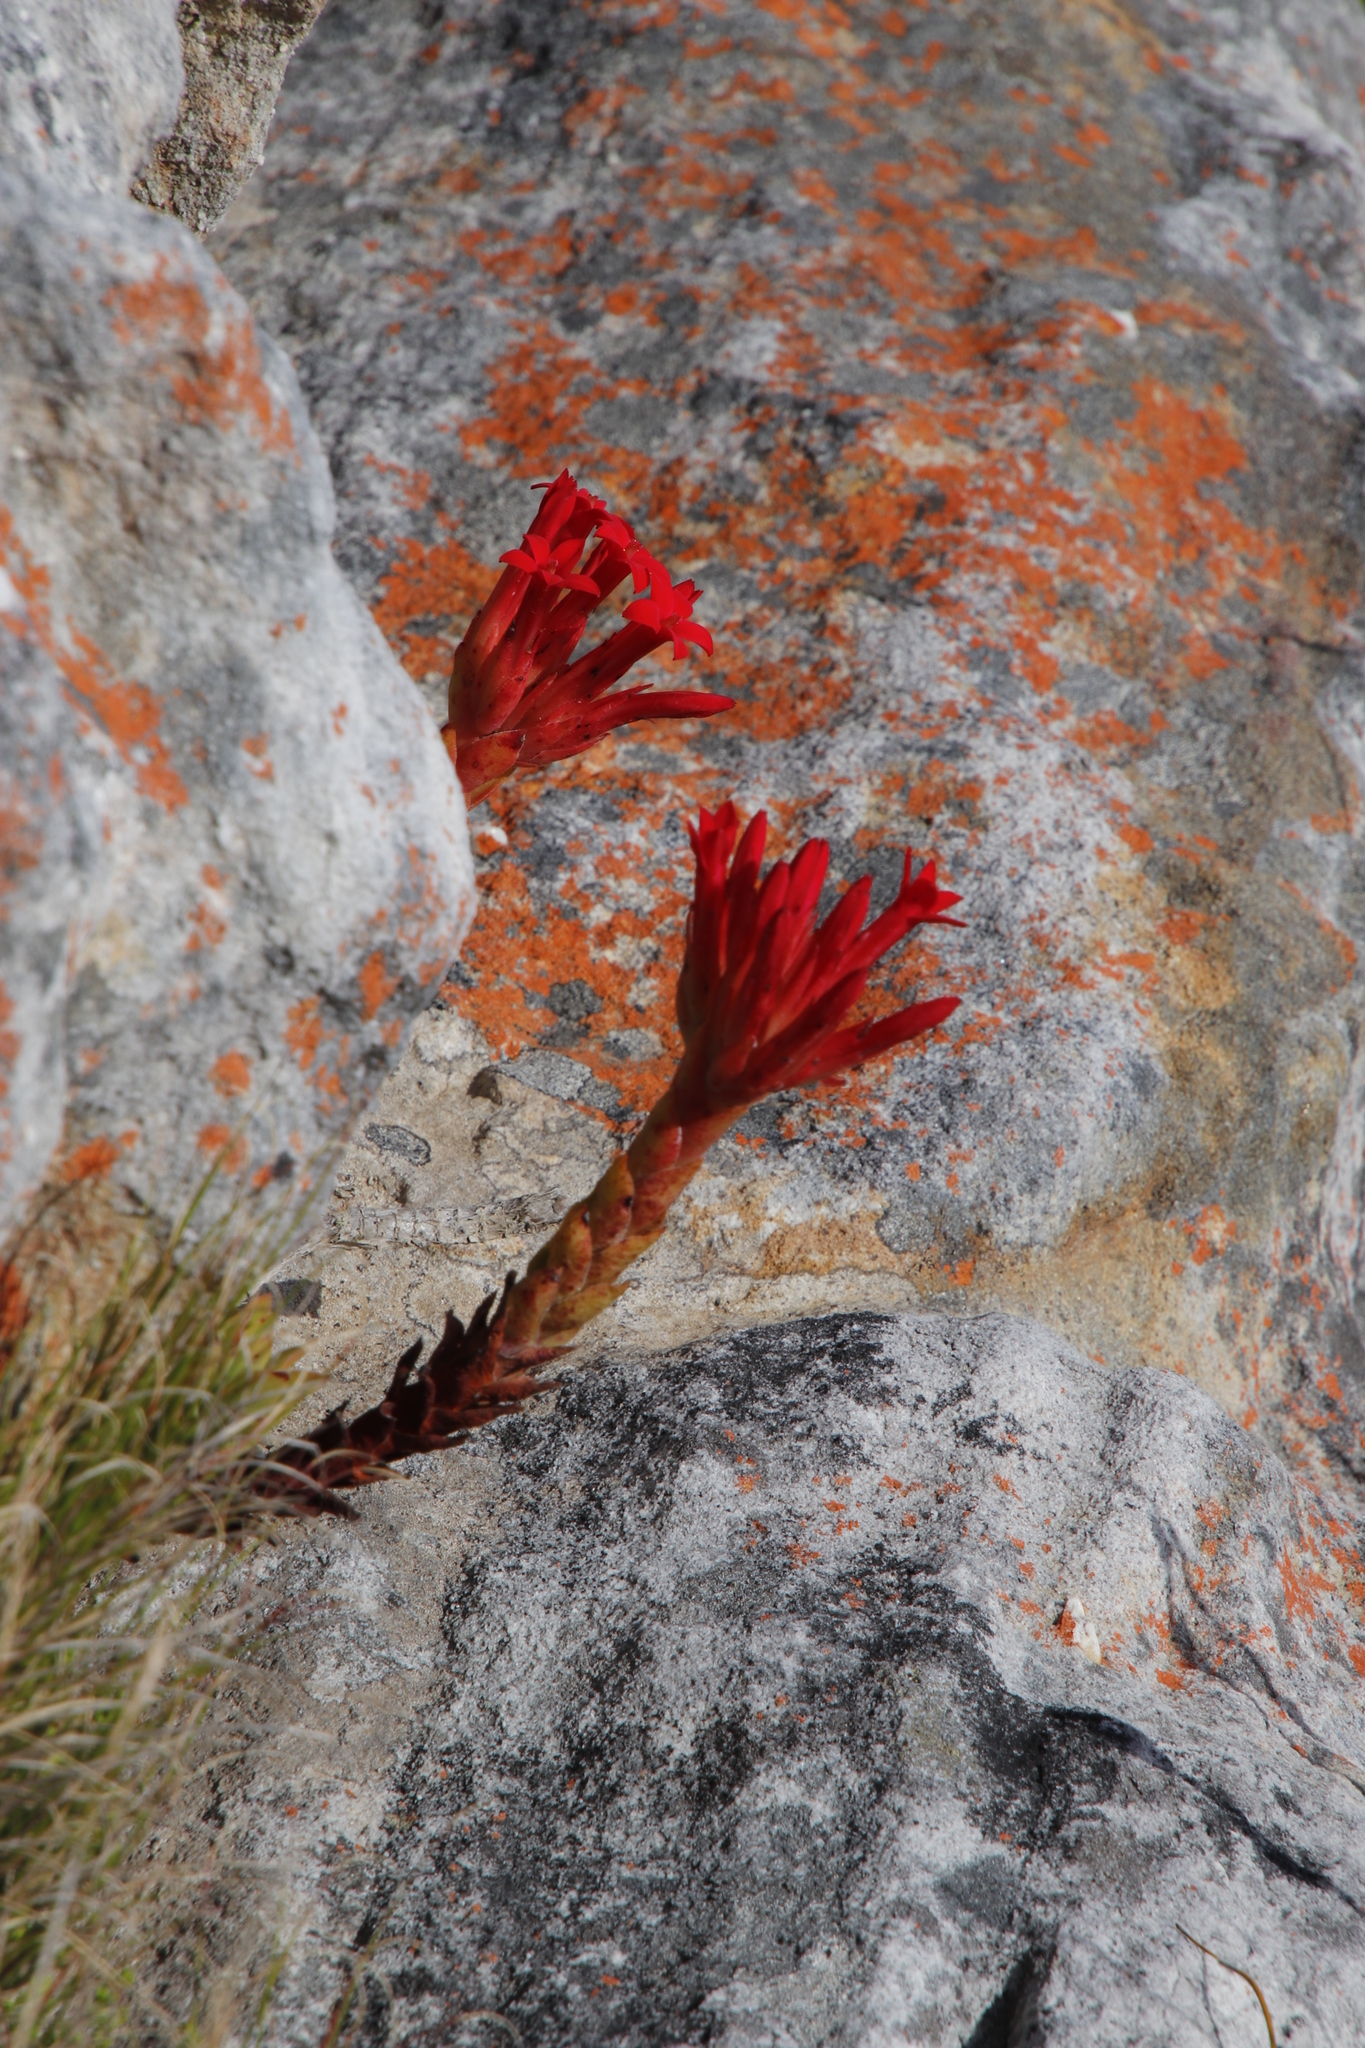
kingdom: Plantae
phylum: Tracheophyta
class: Magnoliopsida
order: Saxifragales
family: Crassulaceae
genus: Crassula
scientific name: Crassula coccinea
